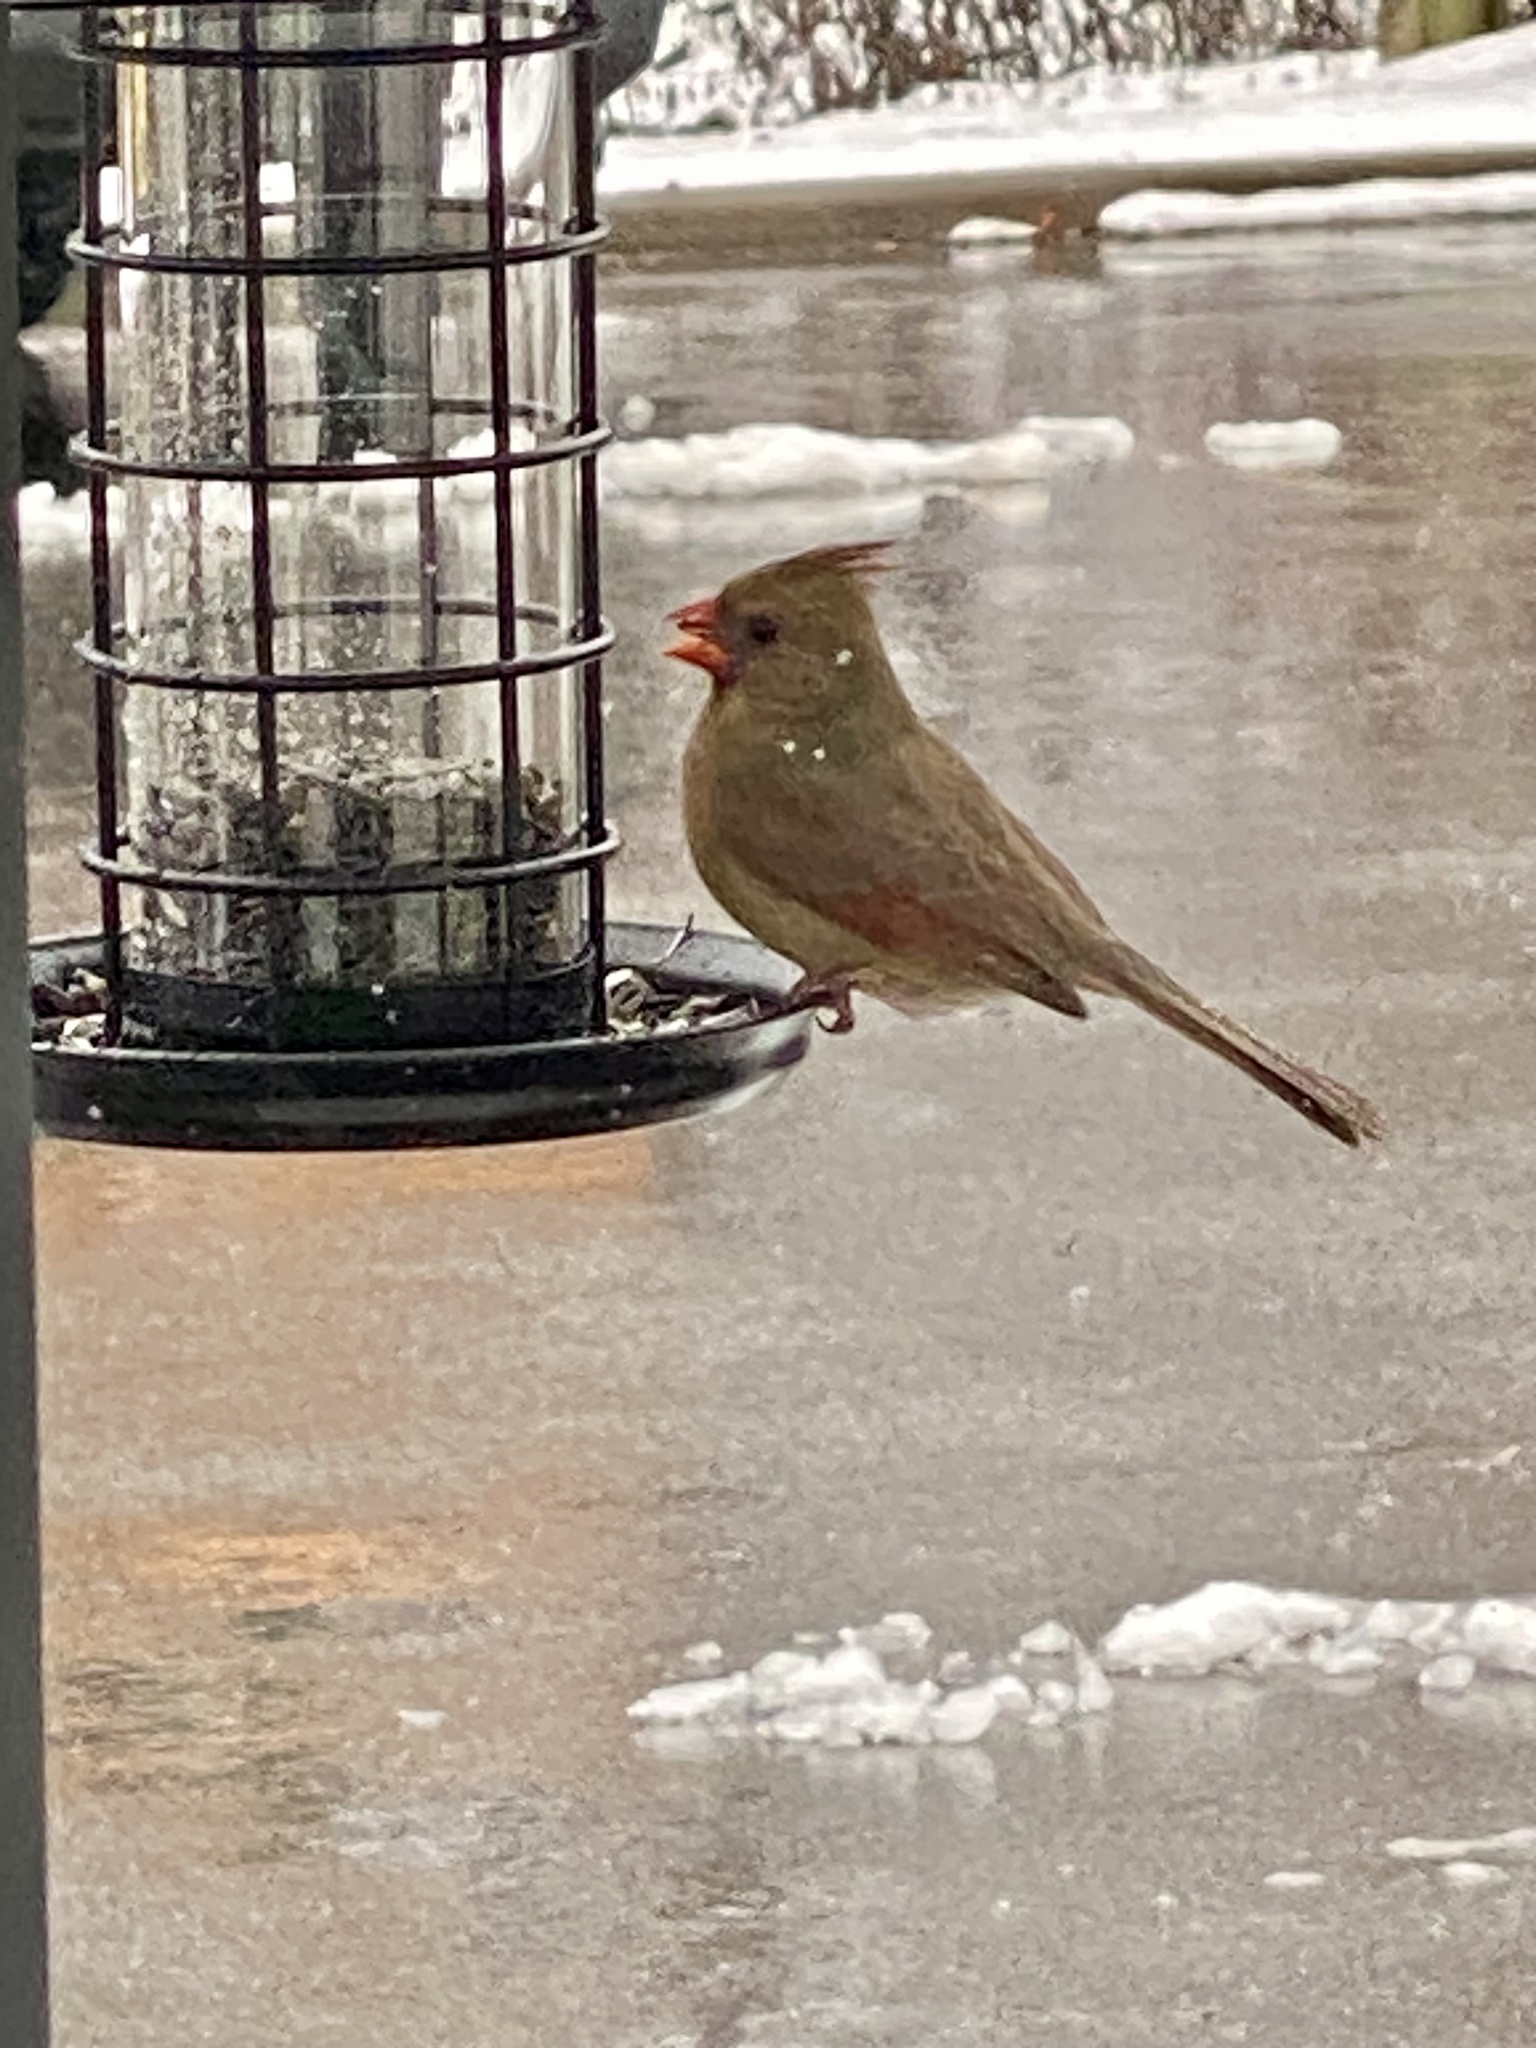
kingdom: Animalia
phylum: Chordata
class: Aves
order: Passeriformes
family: Cardinalidae
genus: Cardinalis
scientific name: Cardinalis cardinalis
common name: Northern cardinal
